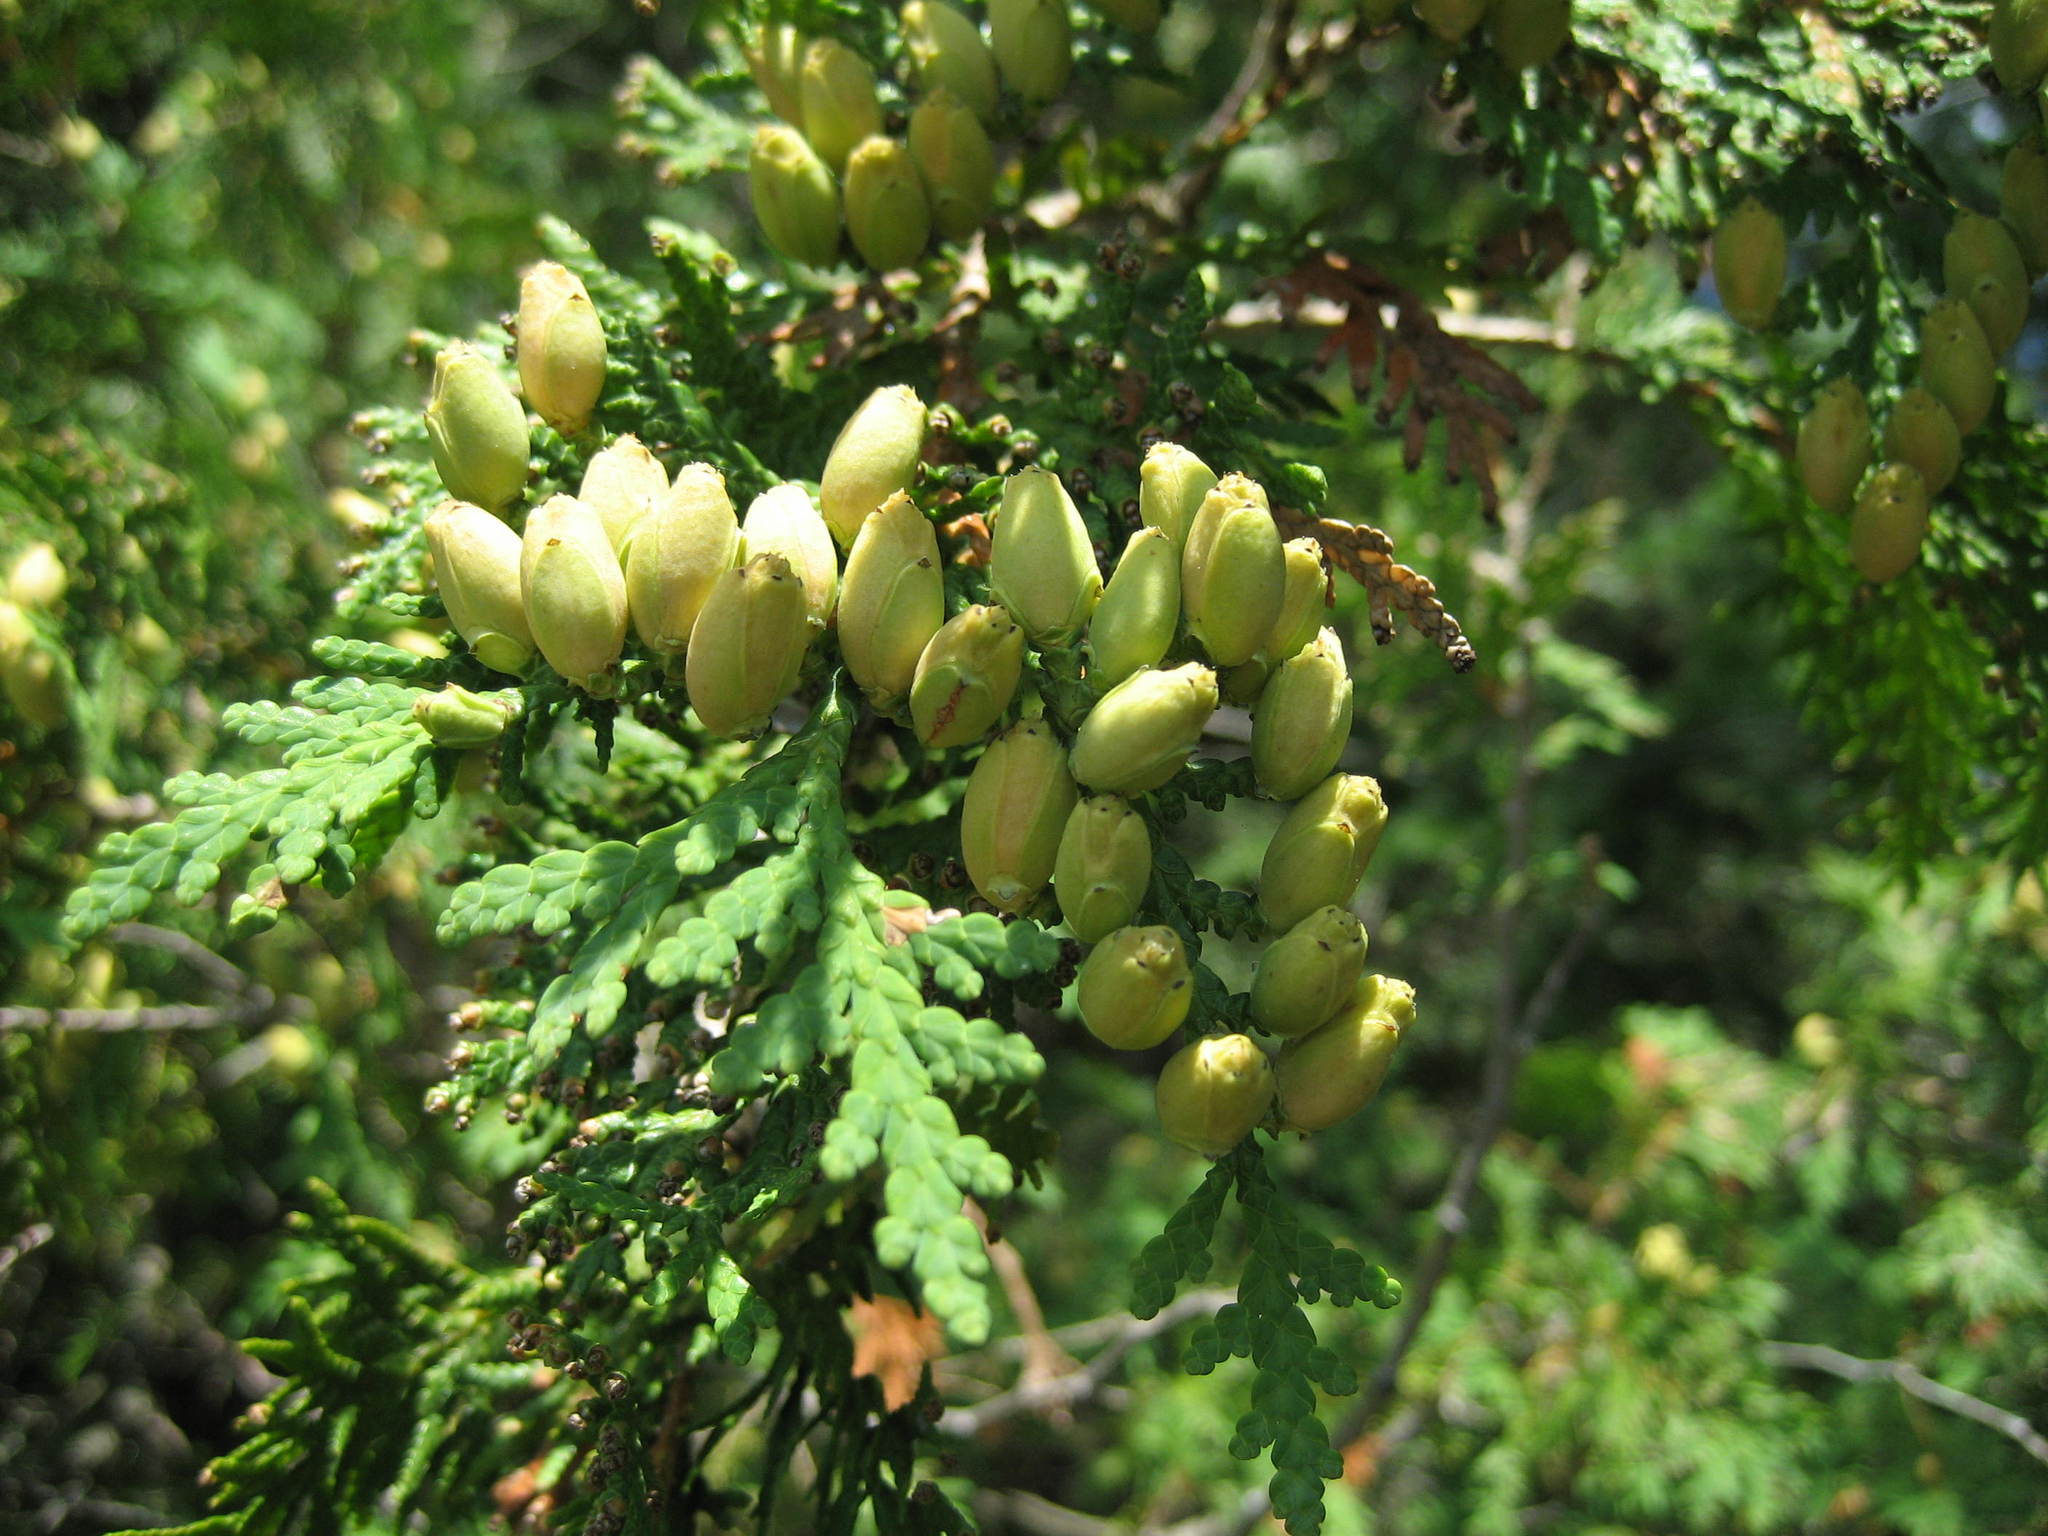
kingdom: Plantae
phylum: Tracheophyta
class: Pinopsida
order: Pinales
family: Cupressaceae
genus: Thuja
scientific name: Thuja occidentalis
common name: Northern white-cedar
